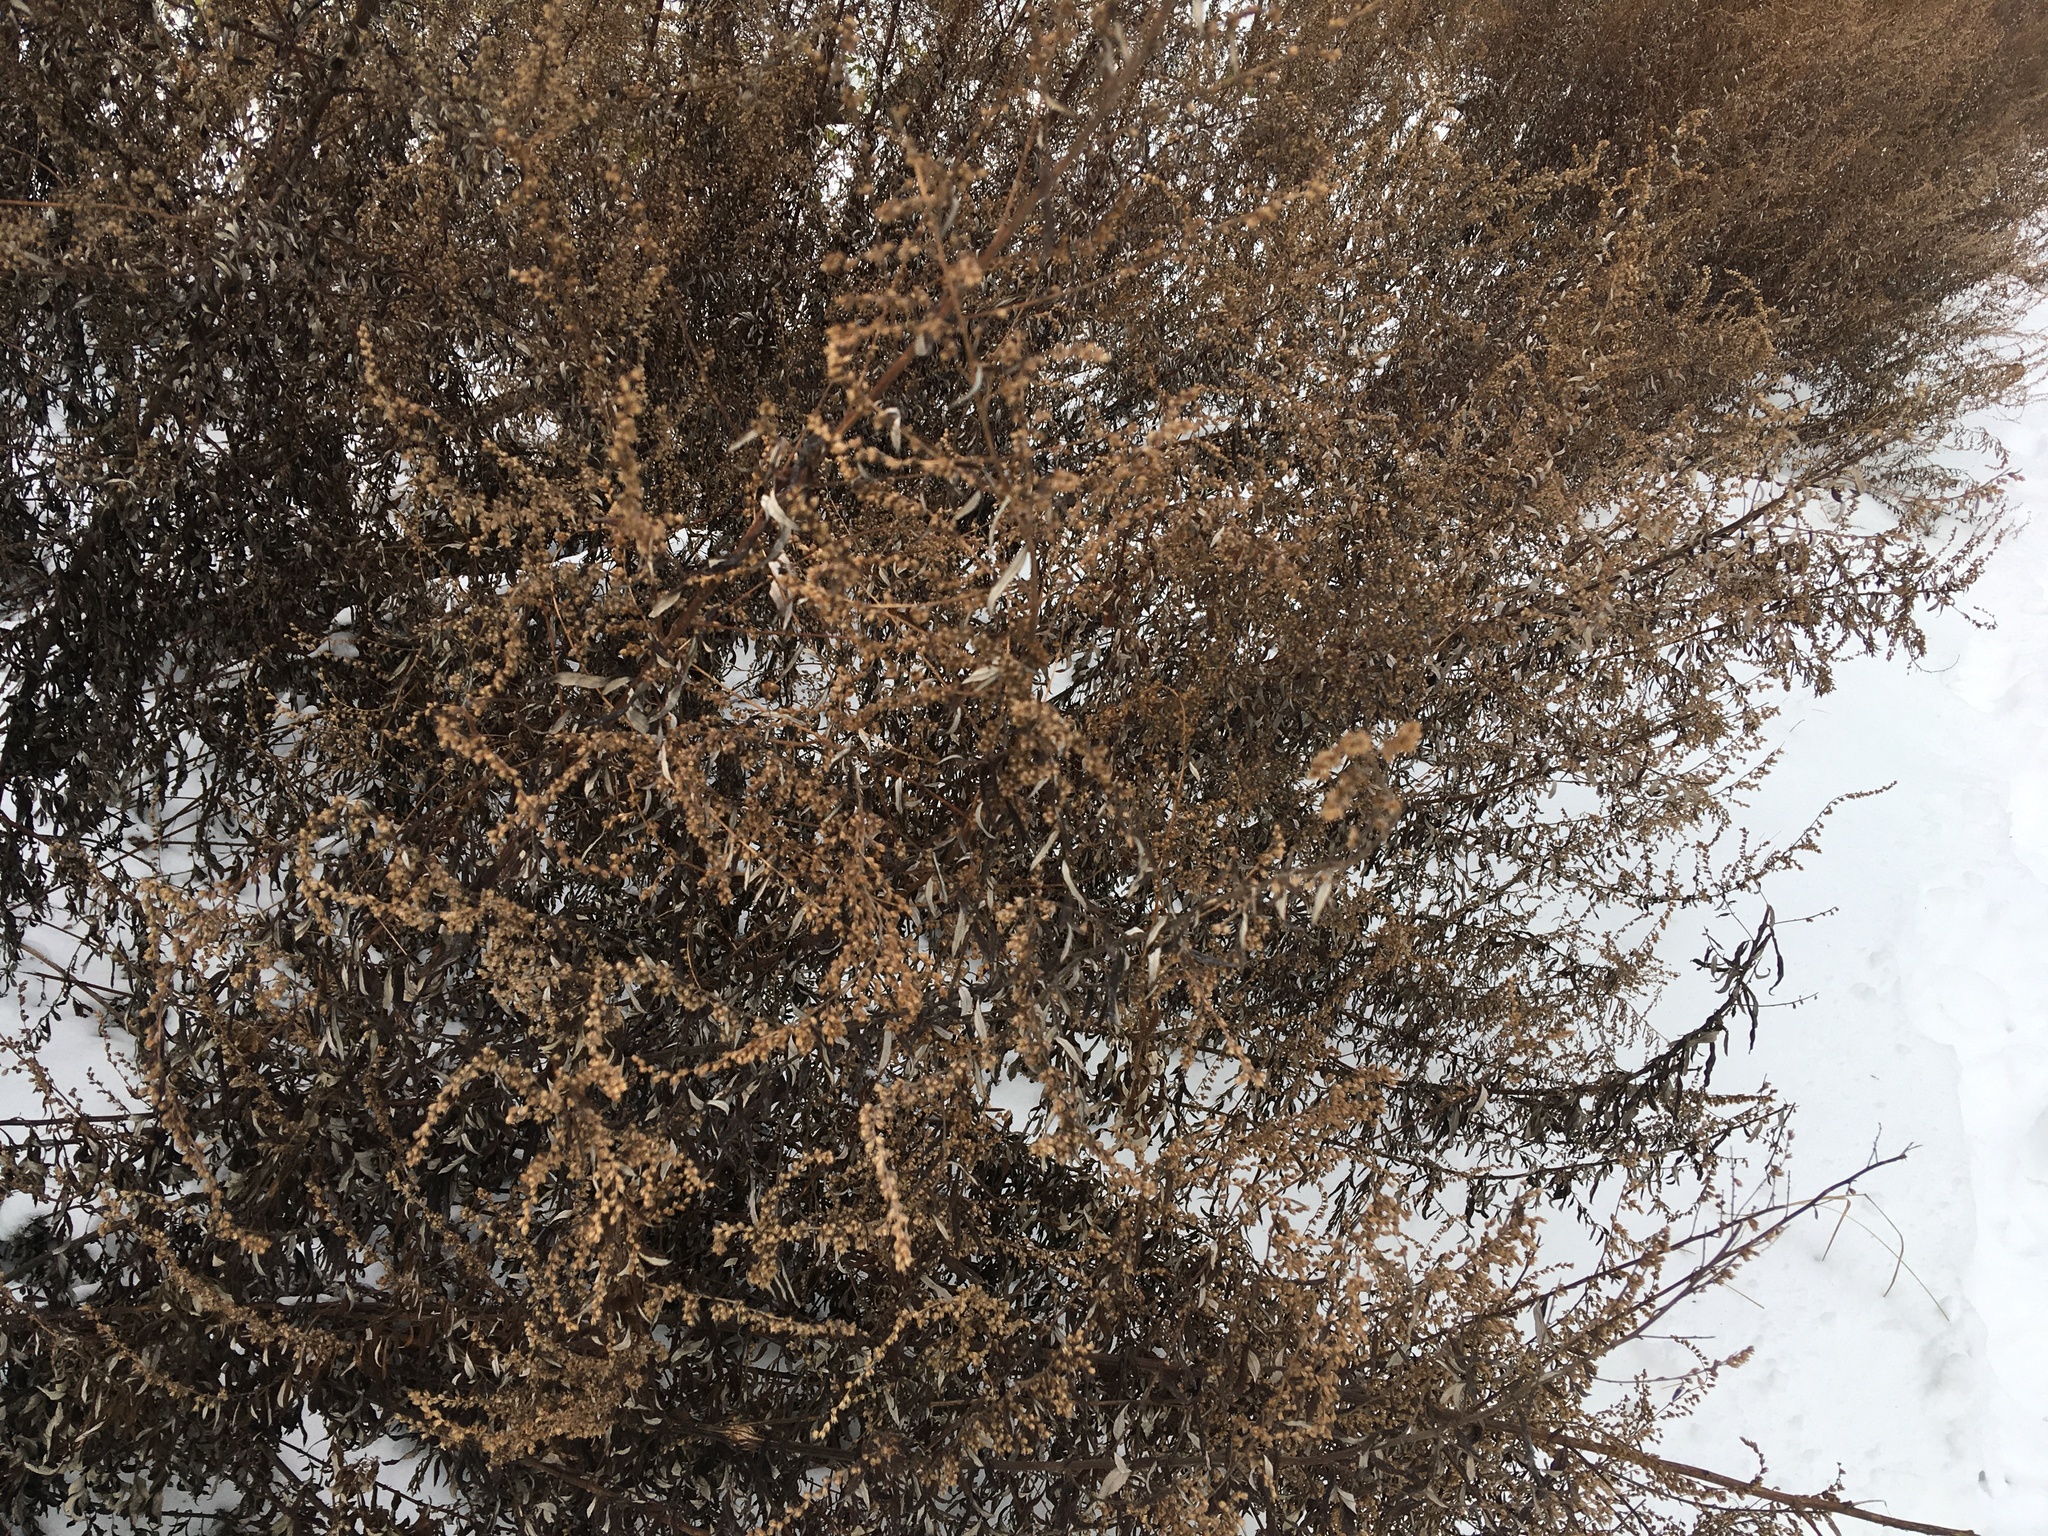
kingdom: Plantae
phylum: Tracheophyta
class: Magnoliopsida
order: Asterales
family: Asteraceae
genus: Artemisia
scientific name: Artemisia vulgaris
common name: Mugwort
